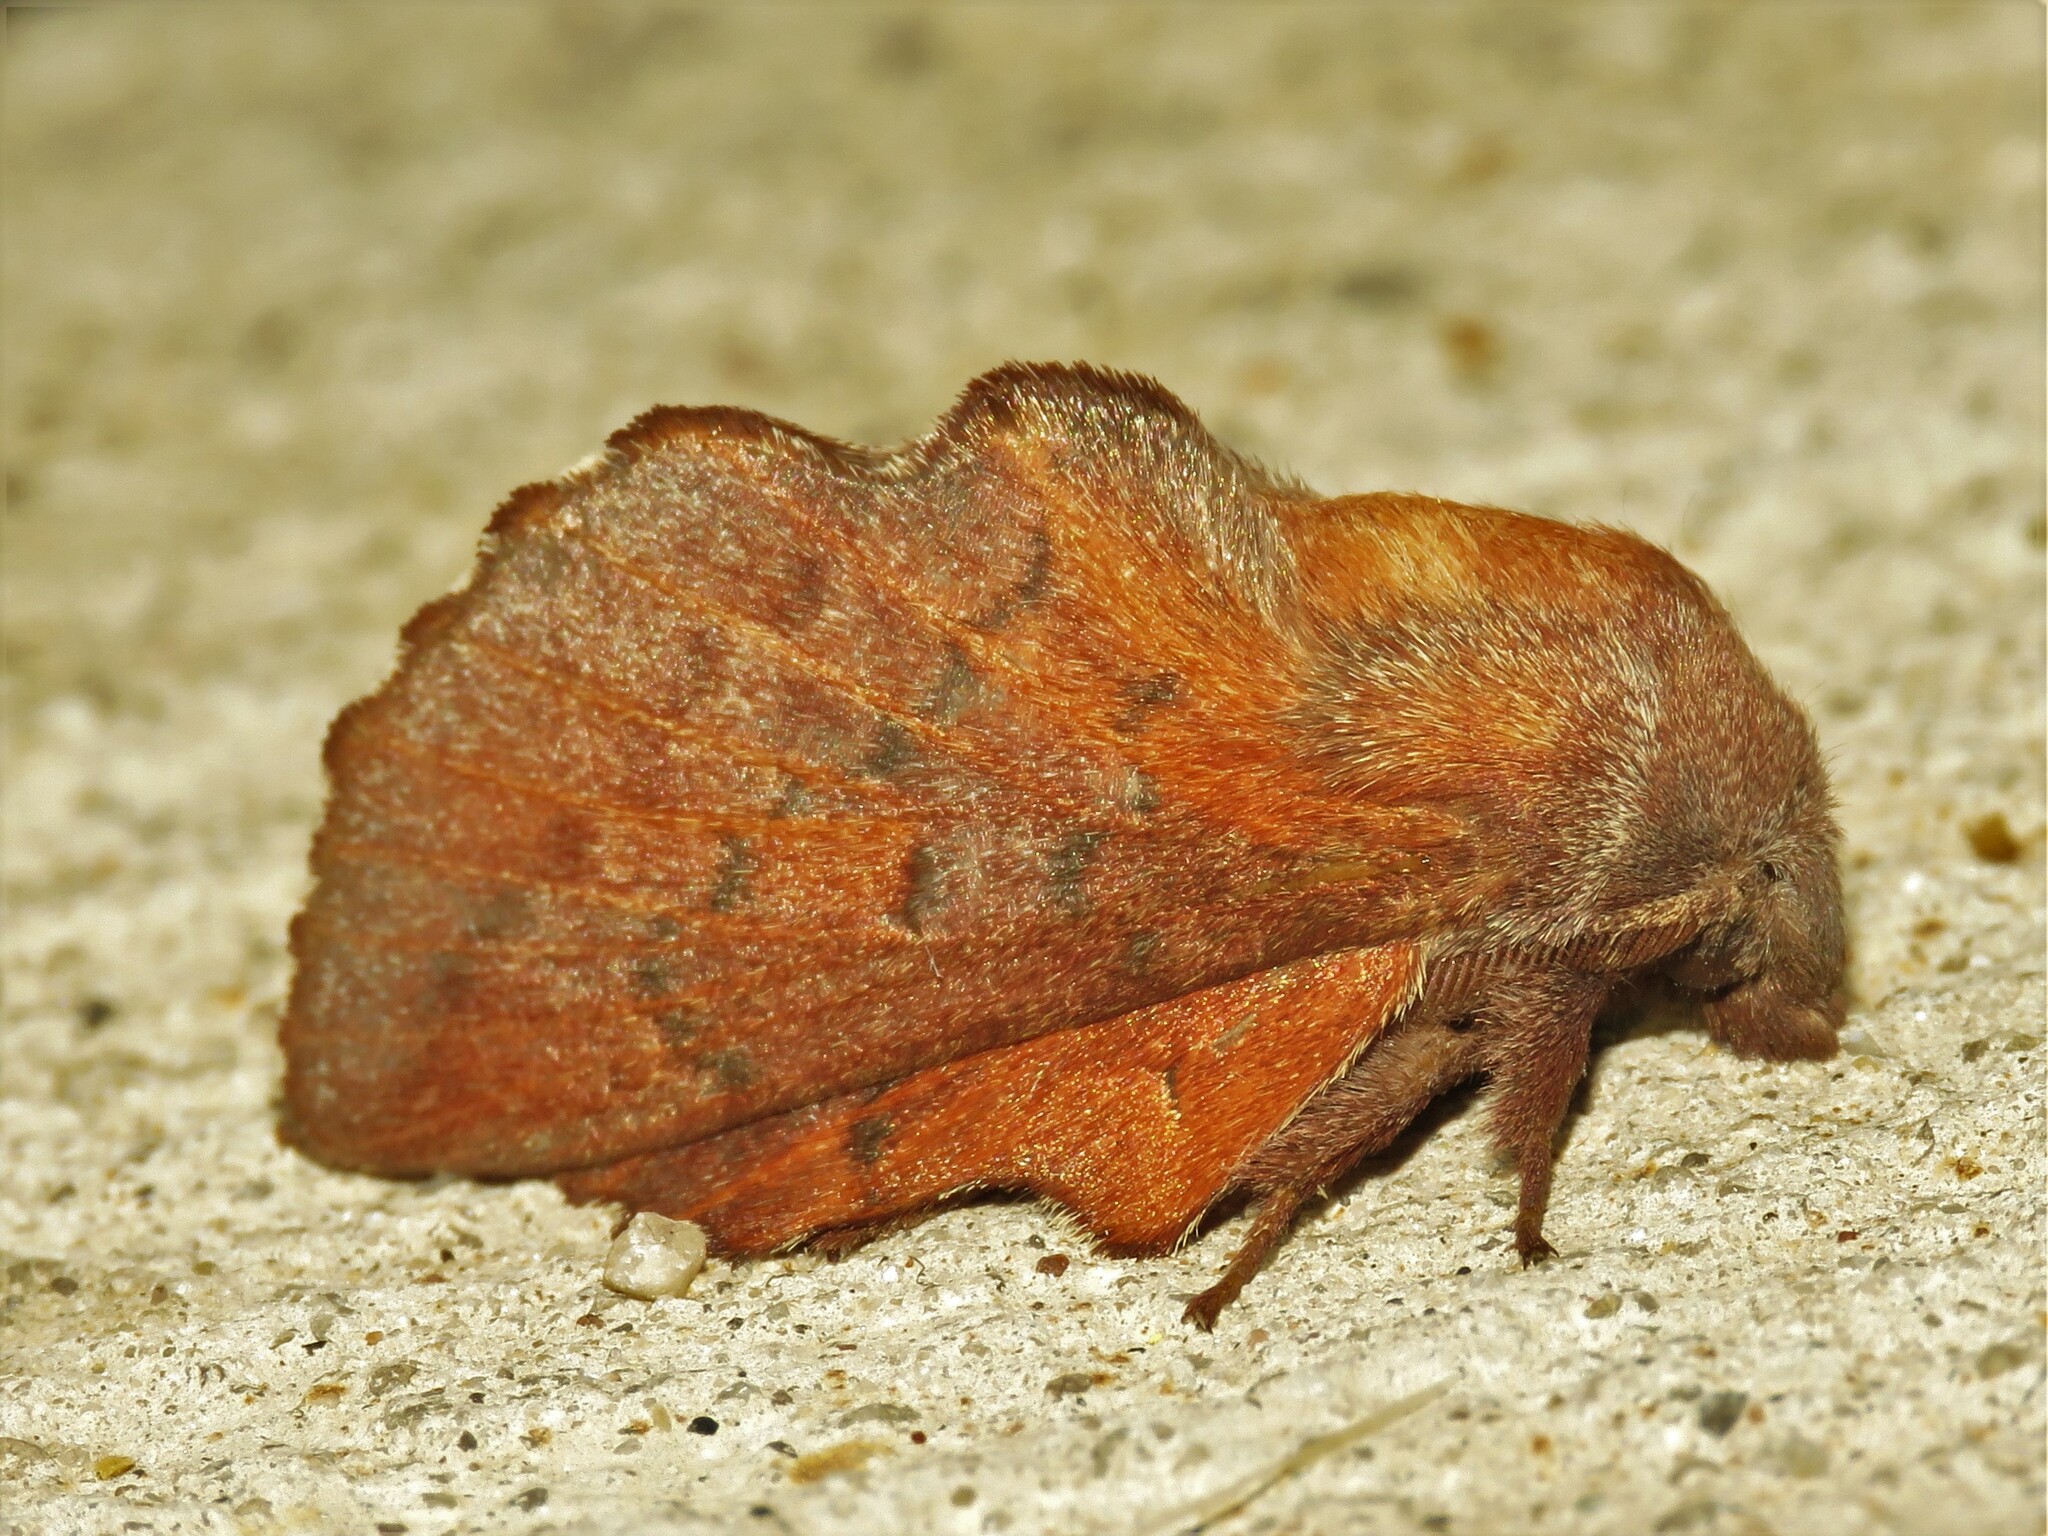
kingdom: Animalia
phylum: Arthropoda
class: Insecta
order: Lepidoptera
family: Lasiocampidae
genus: Phyllodesma
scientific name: Phyllodesma americana
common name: American lappet moth
